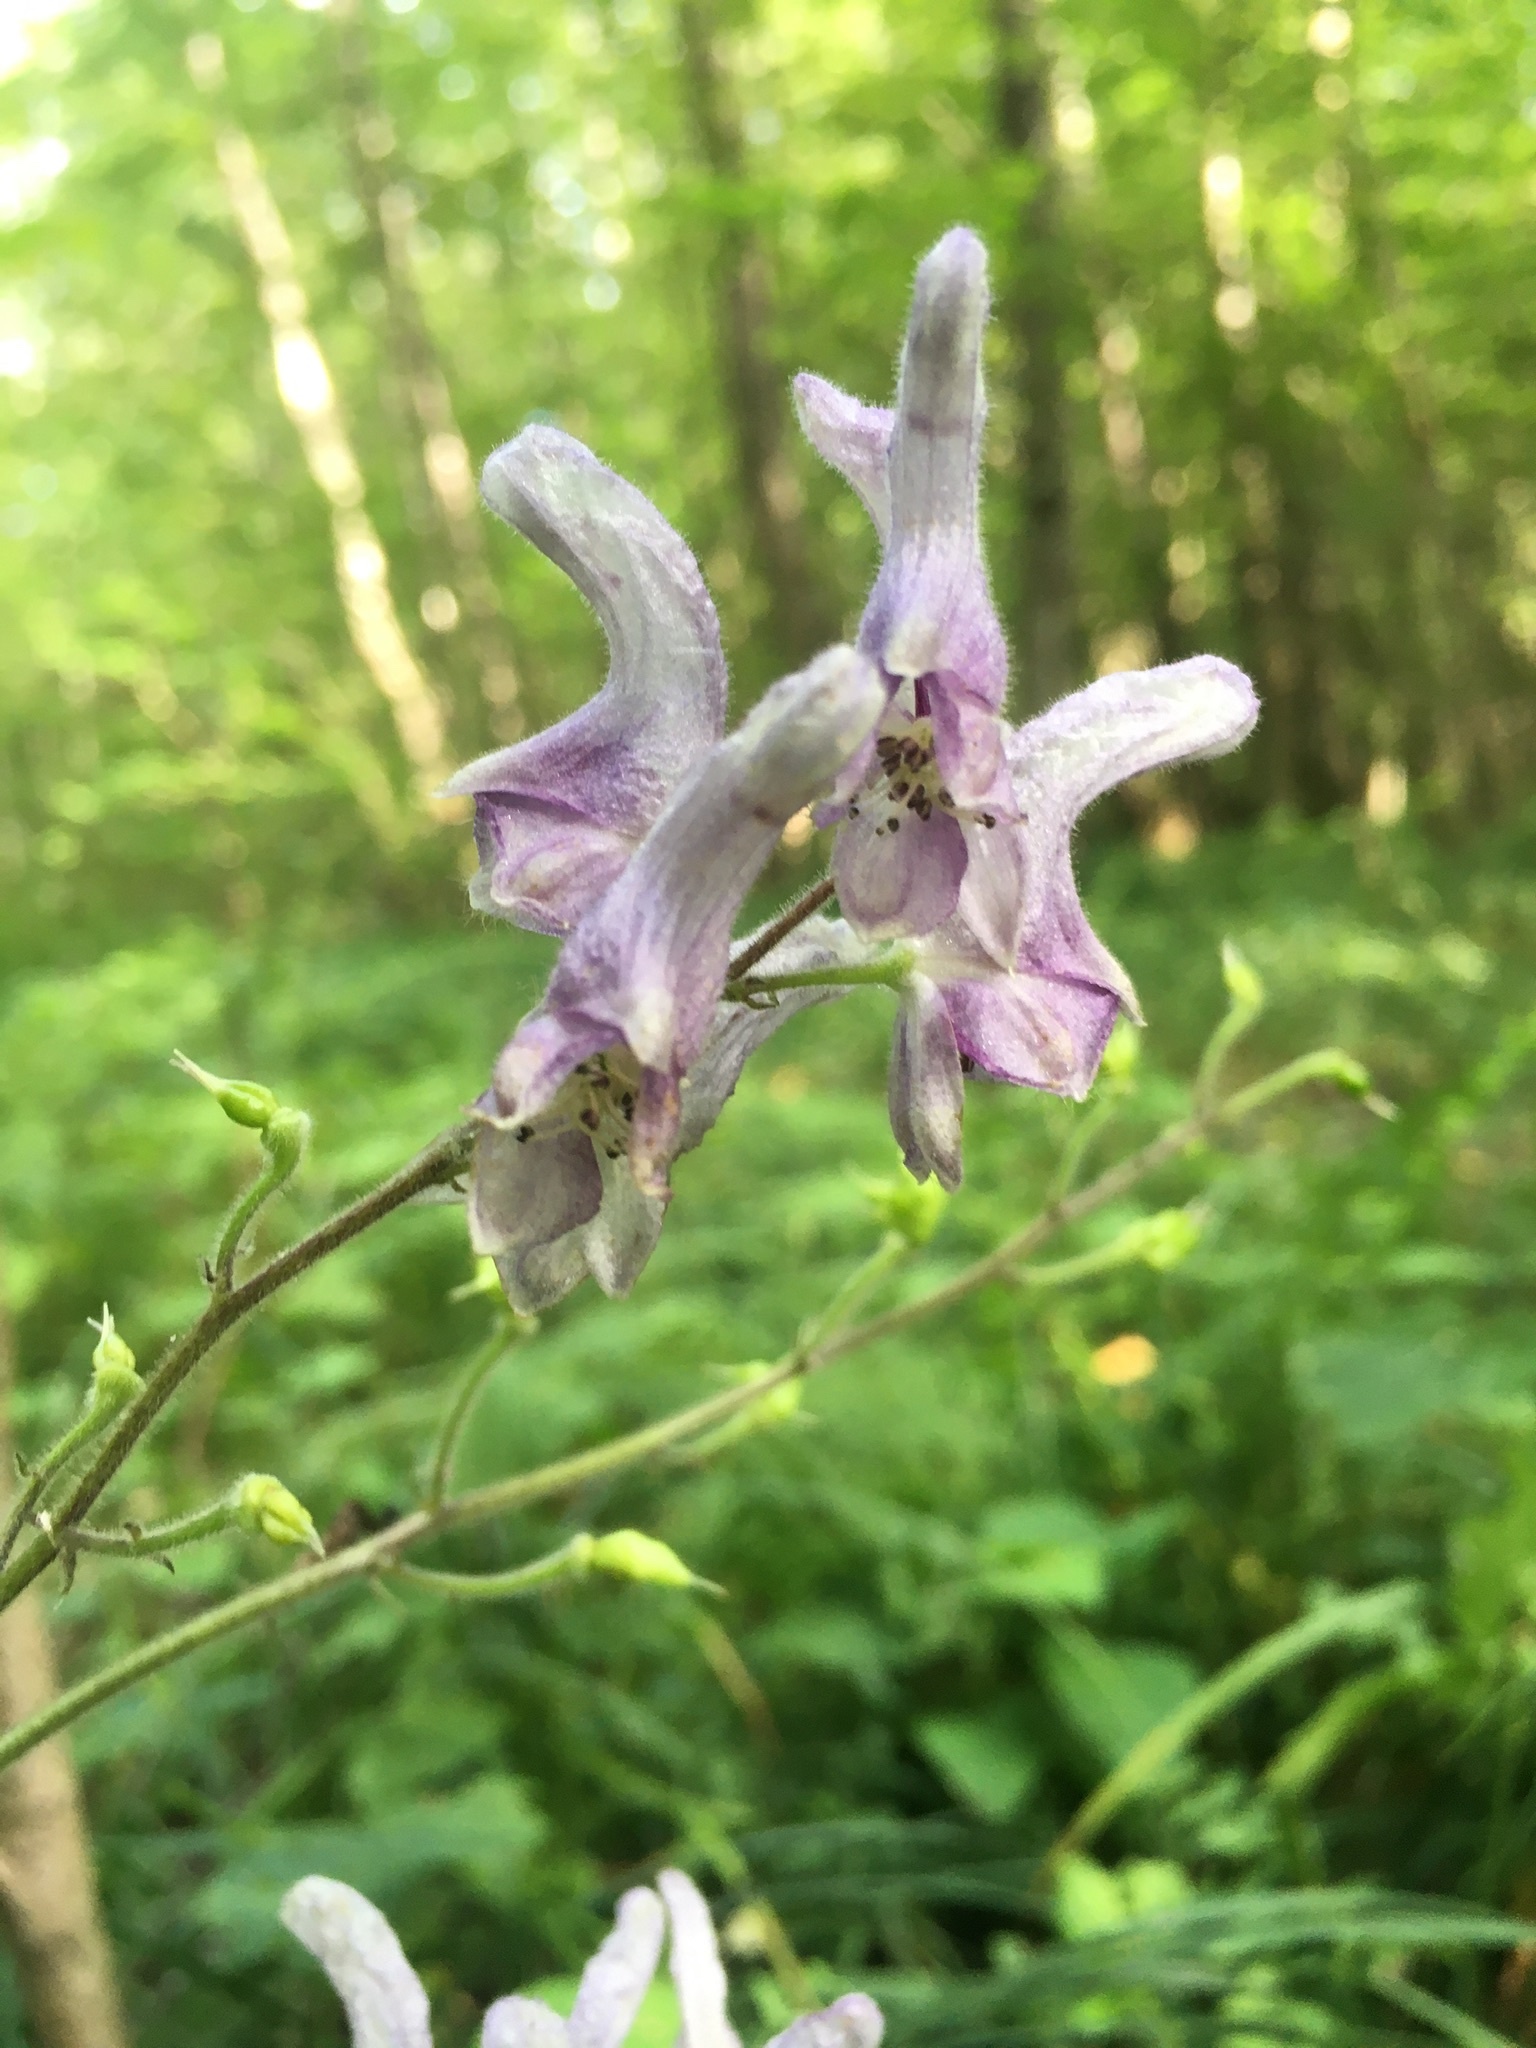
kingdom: Plantae
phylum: Tracheophyta
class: Magnoliopsida
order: Ranunculales
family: Ranunculaceae
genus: Aconitum
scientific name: Aconitum septentrionale
